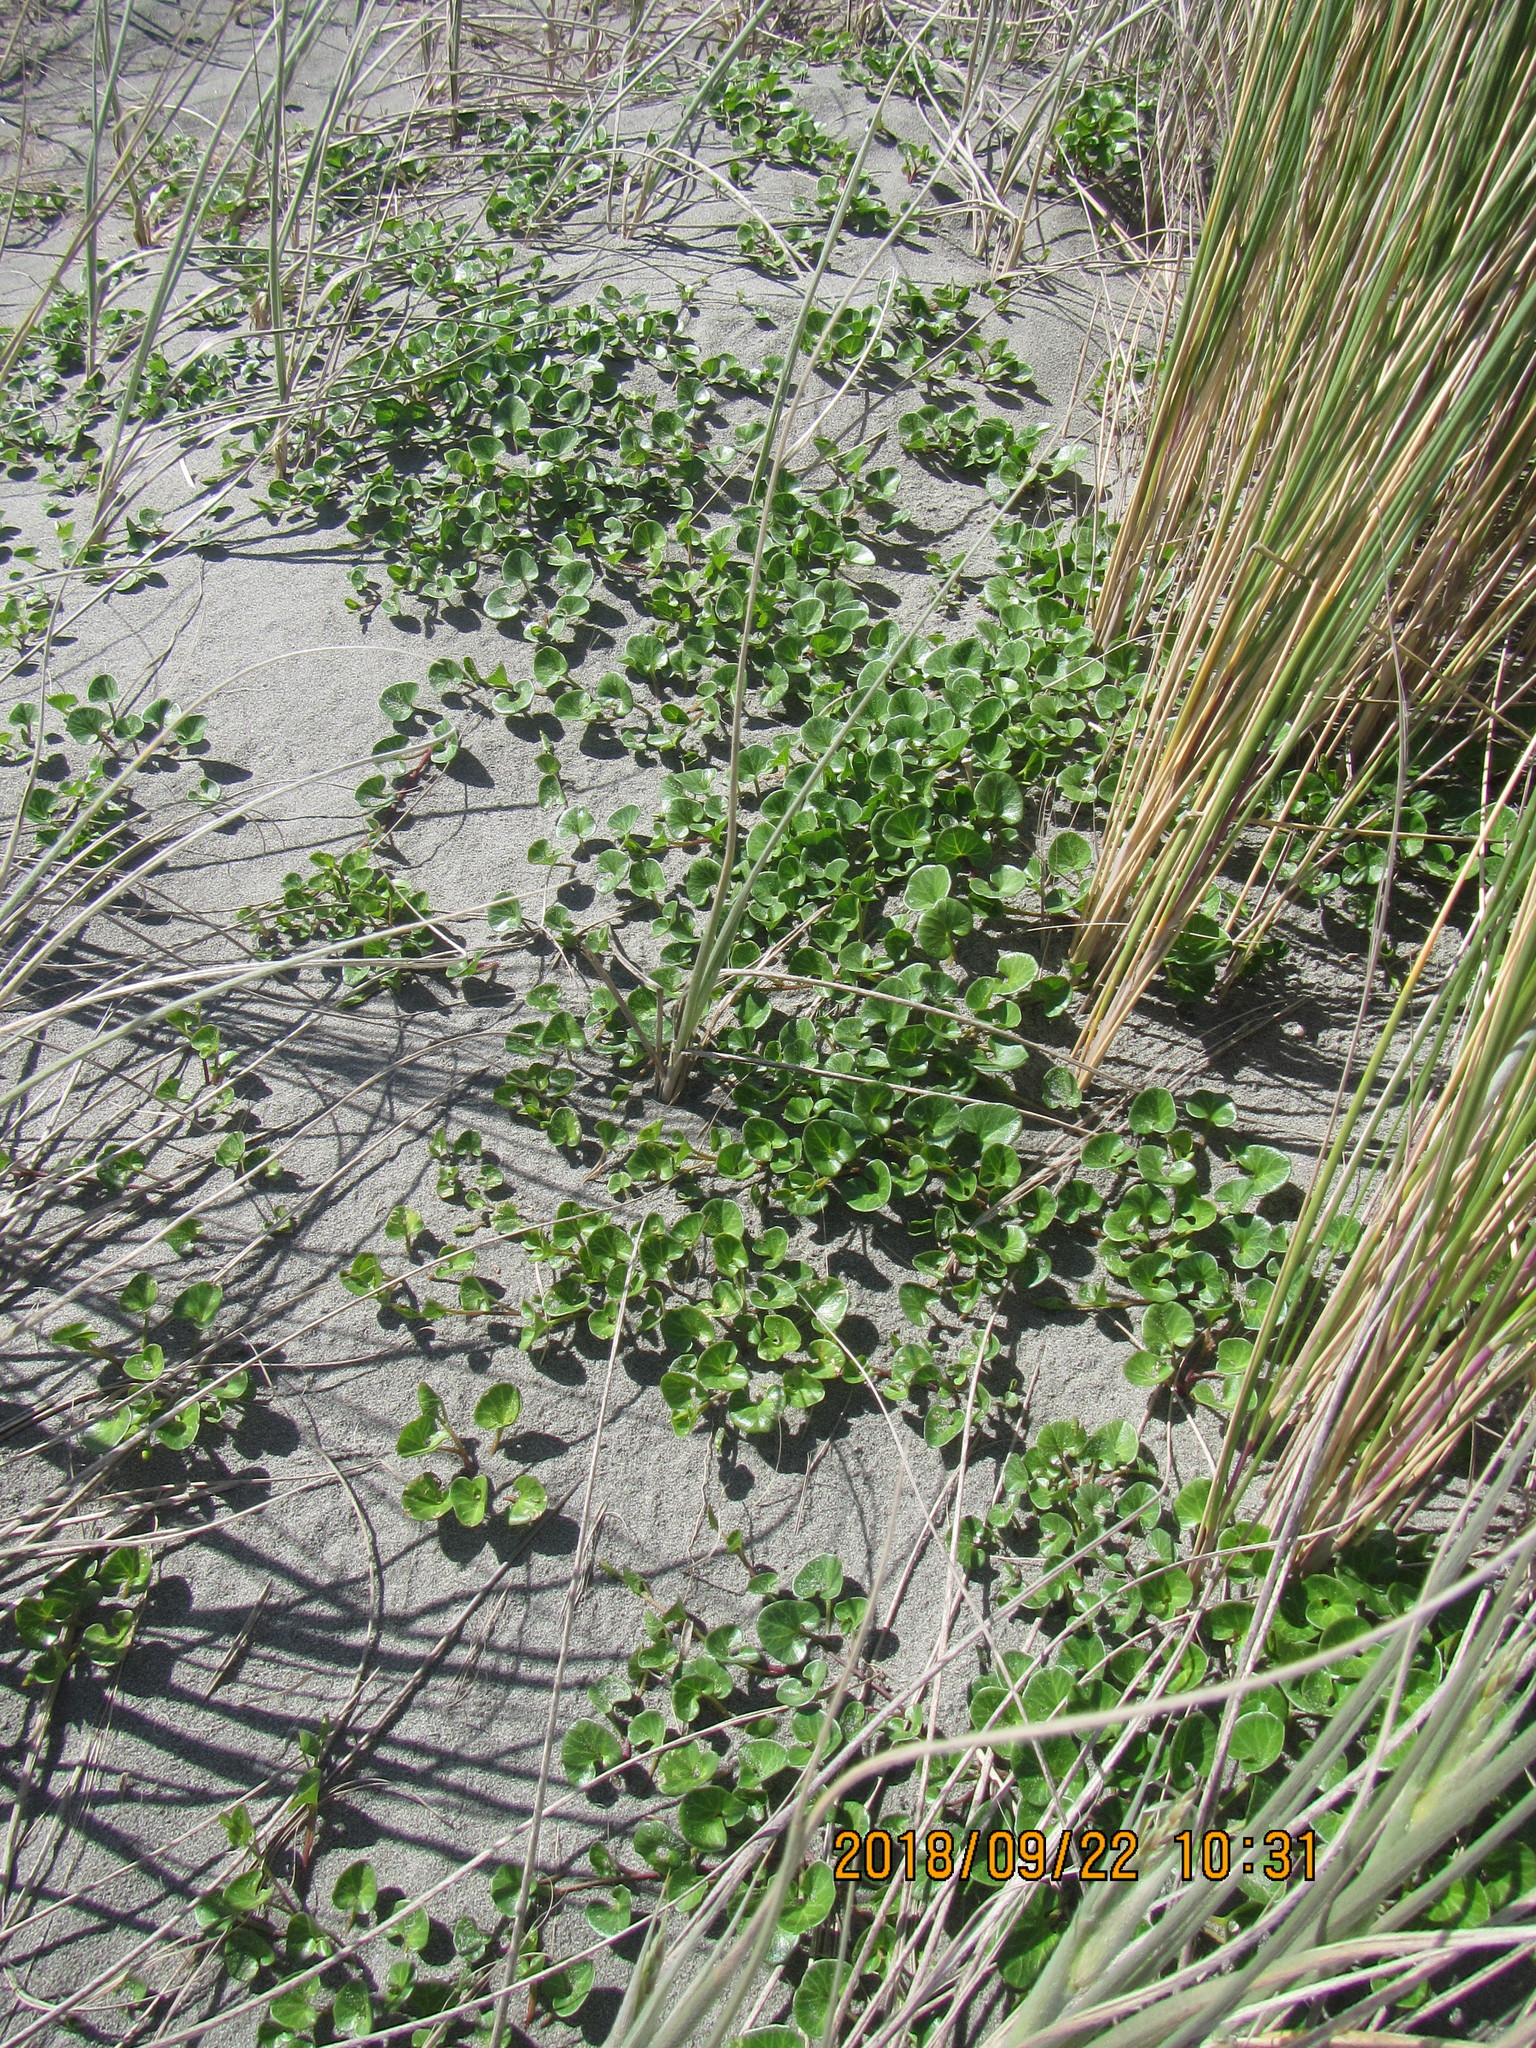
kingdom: Plantae
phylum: Tracheophyta
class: Magnoliopsida
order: Solanales
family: Convolvulaceae
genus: Calystegia
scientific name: Calystegia soldanella
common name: Sea bindweed
